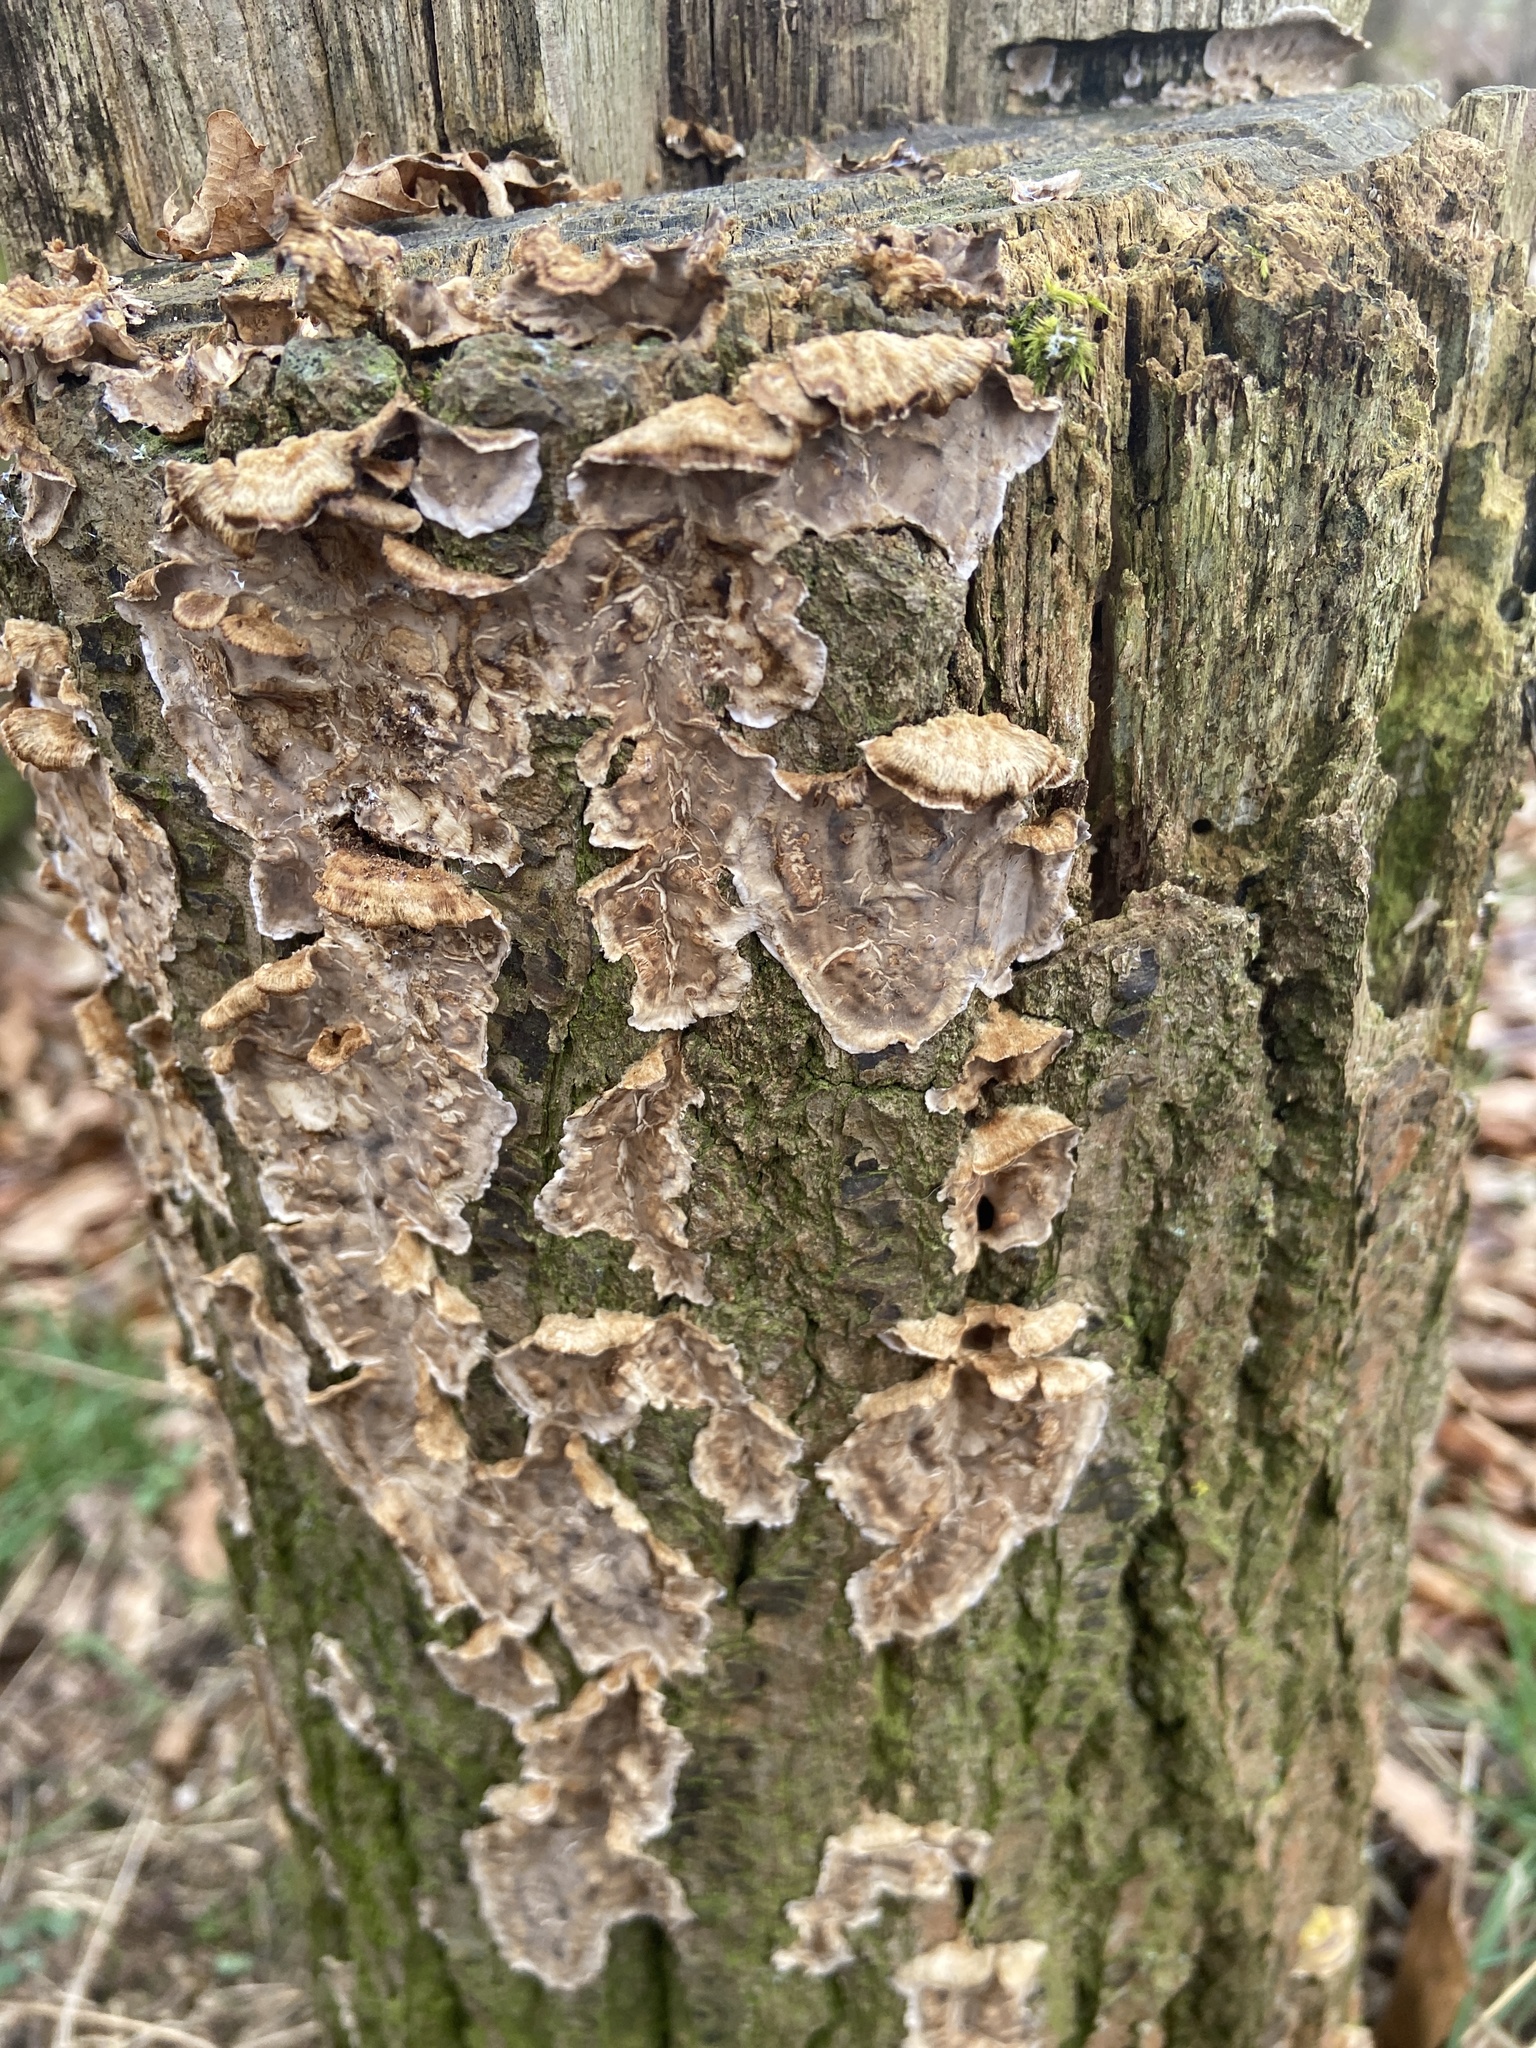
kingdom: Fungi
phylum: Basidiomycota
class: Agaricomycetes
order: Polyporales
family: Phanerochaetaceae
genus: Bjerkandera
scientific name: Bjerkandera adusta
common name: Smoky bracket
